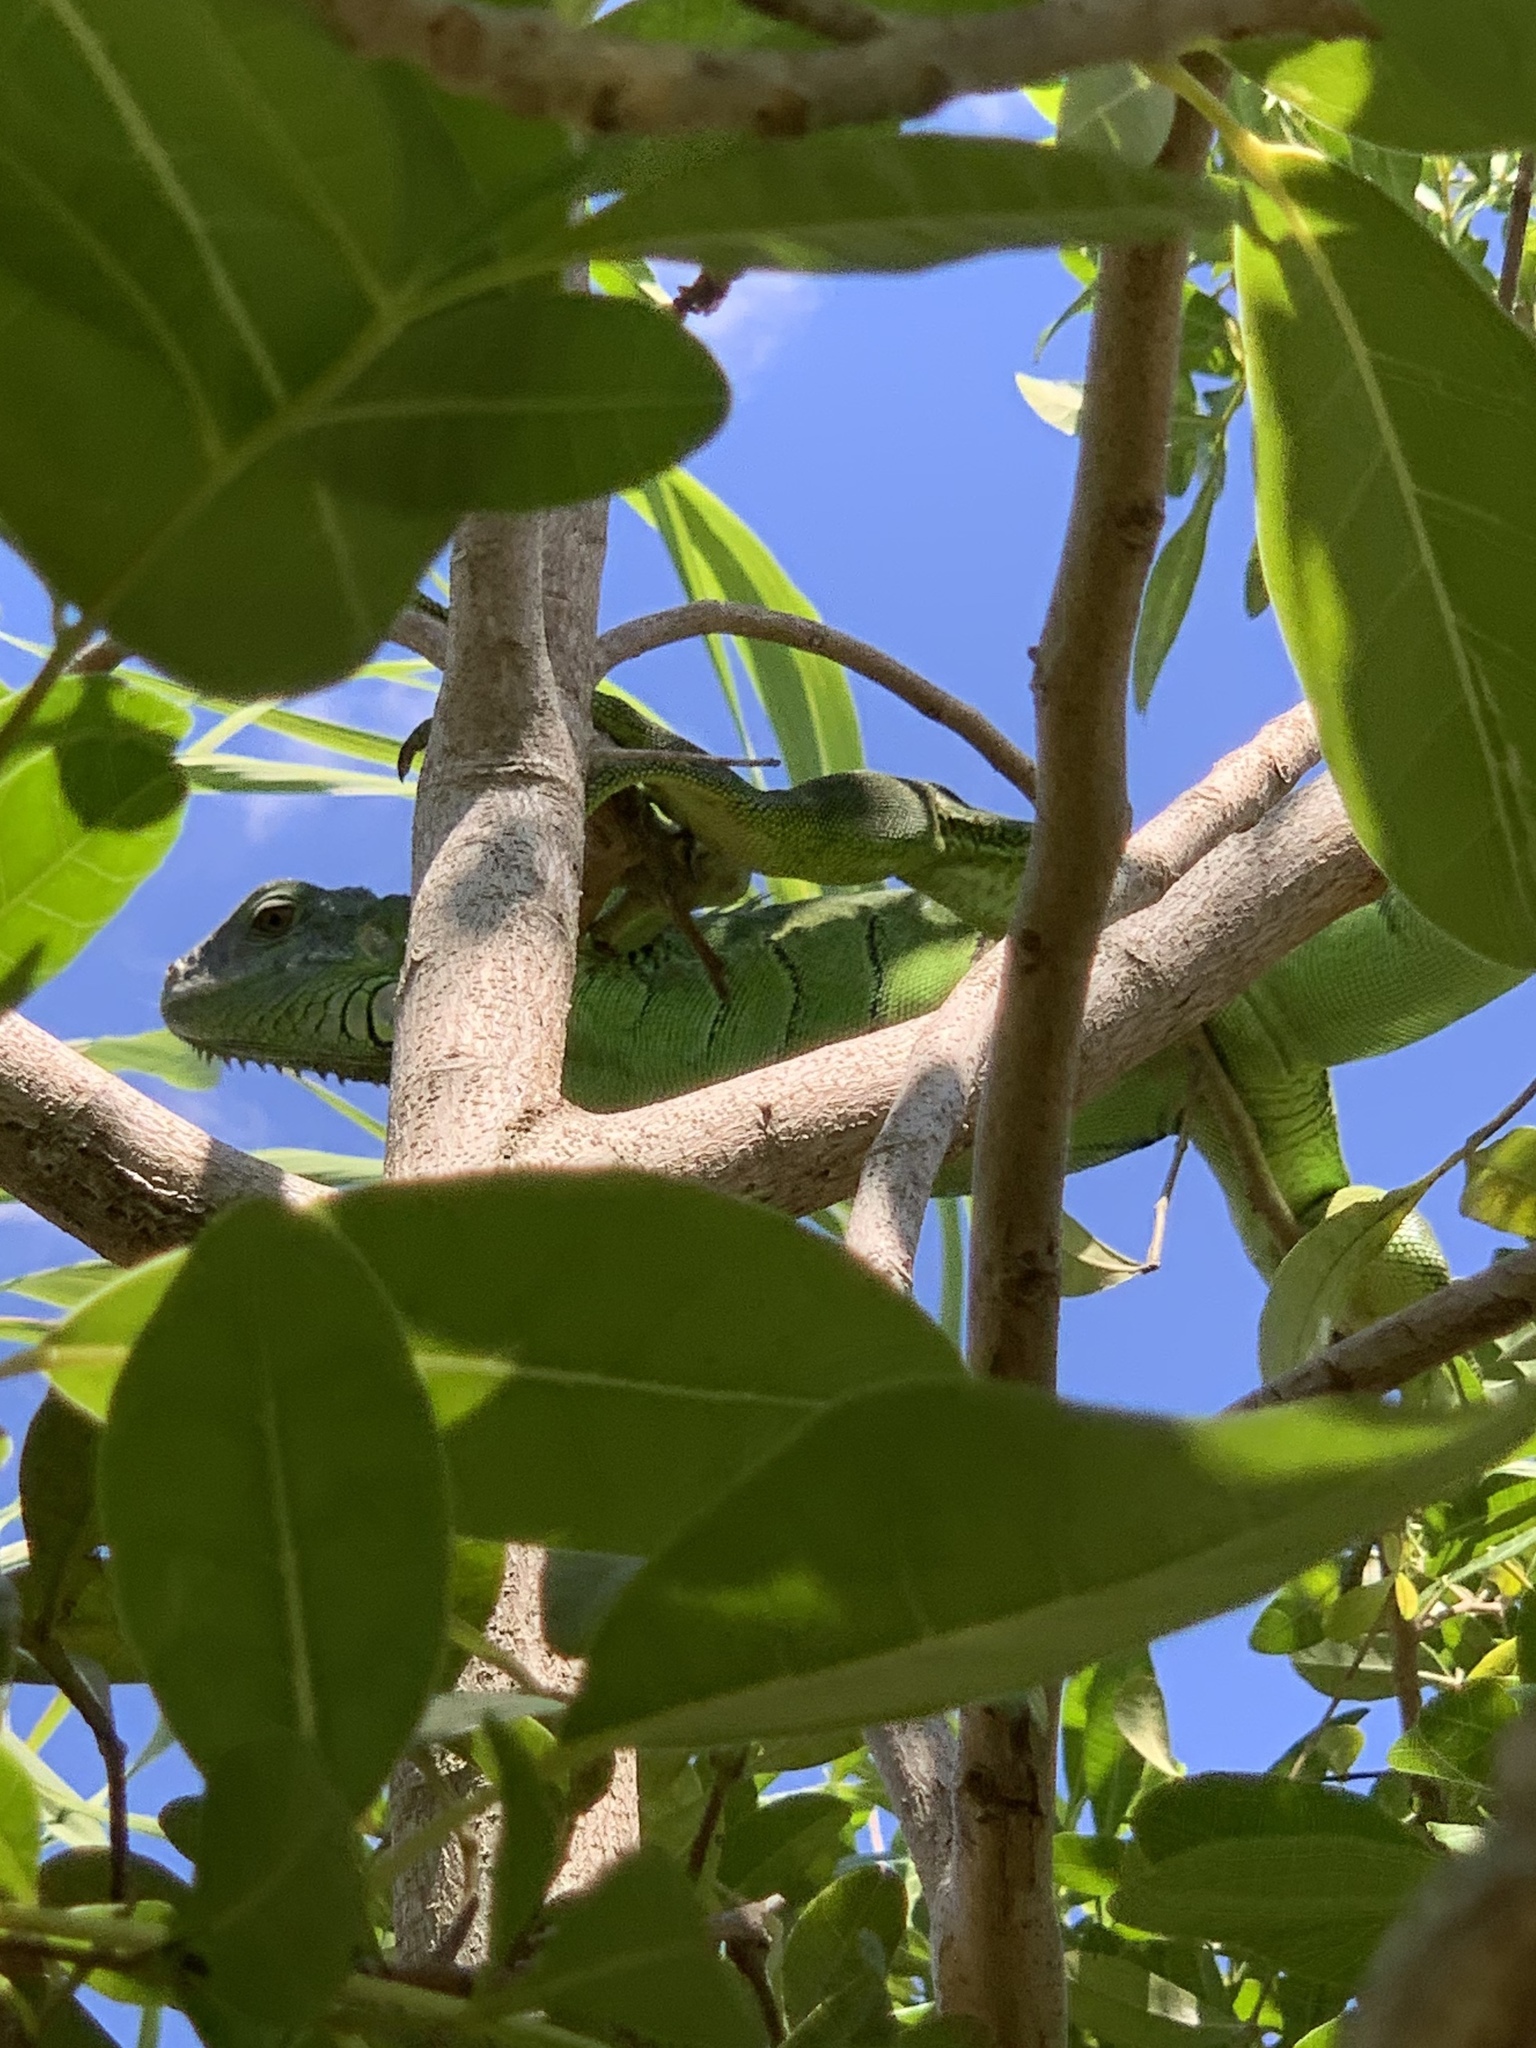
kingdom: Animalia
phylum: Chordata
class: Squamata
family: Iguanidae
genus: Iguana
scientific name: Iguana iguana
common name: Green iguana
